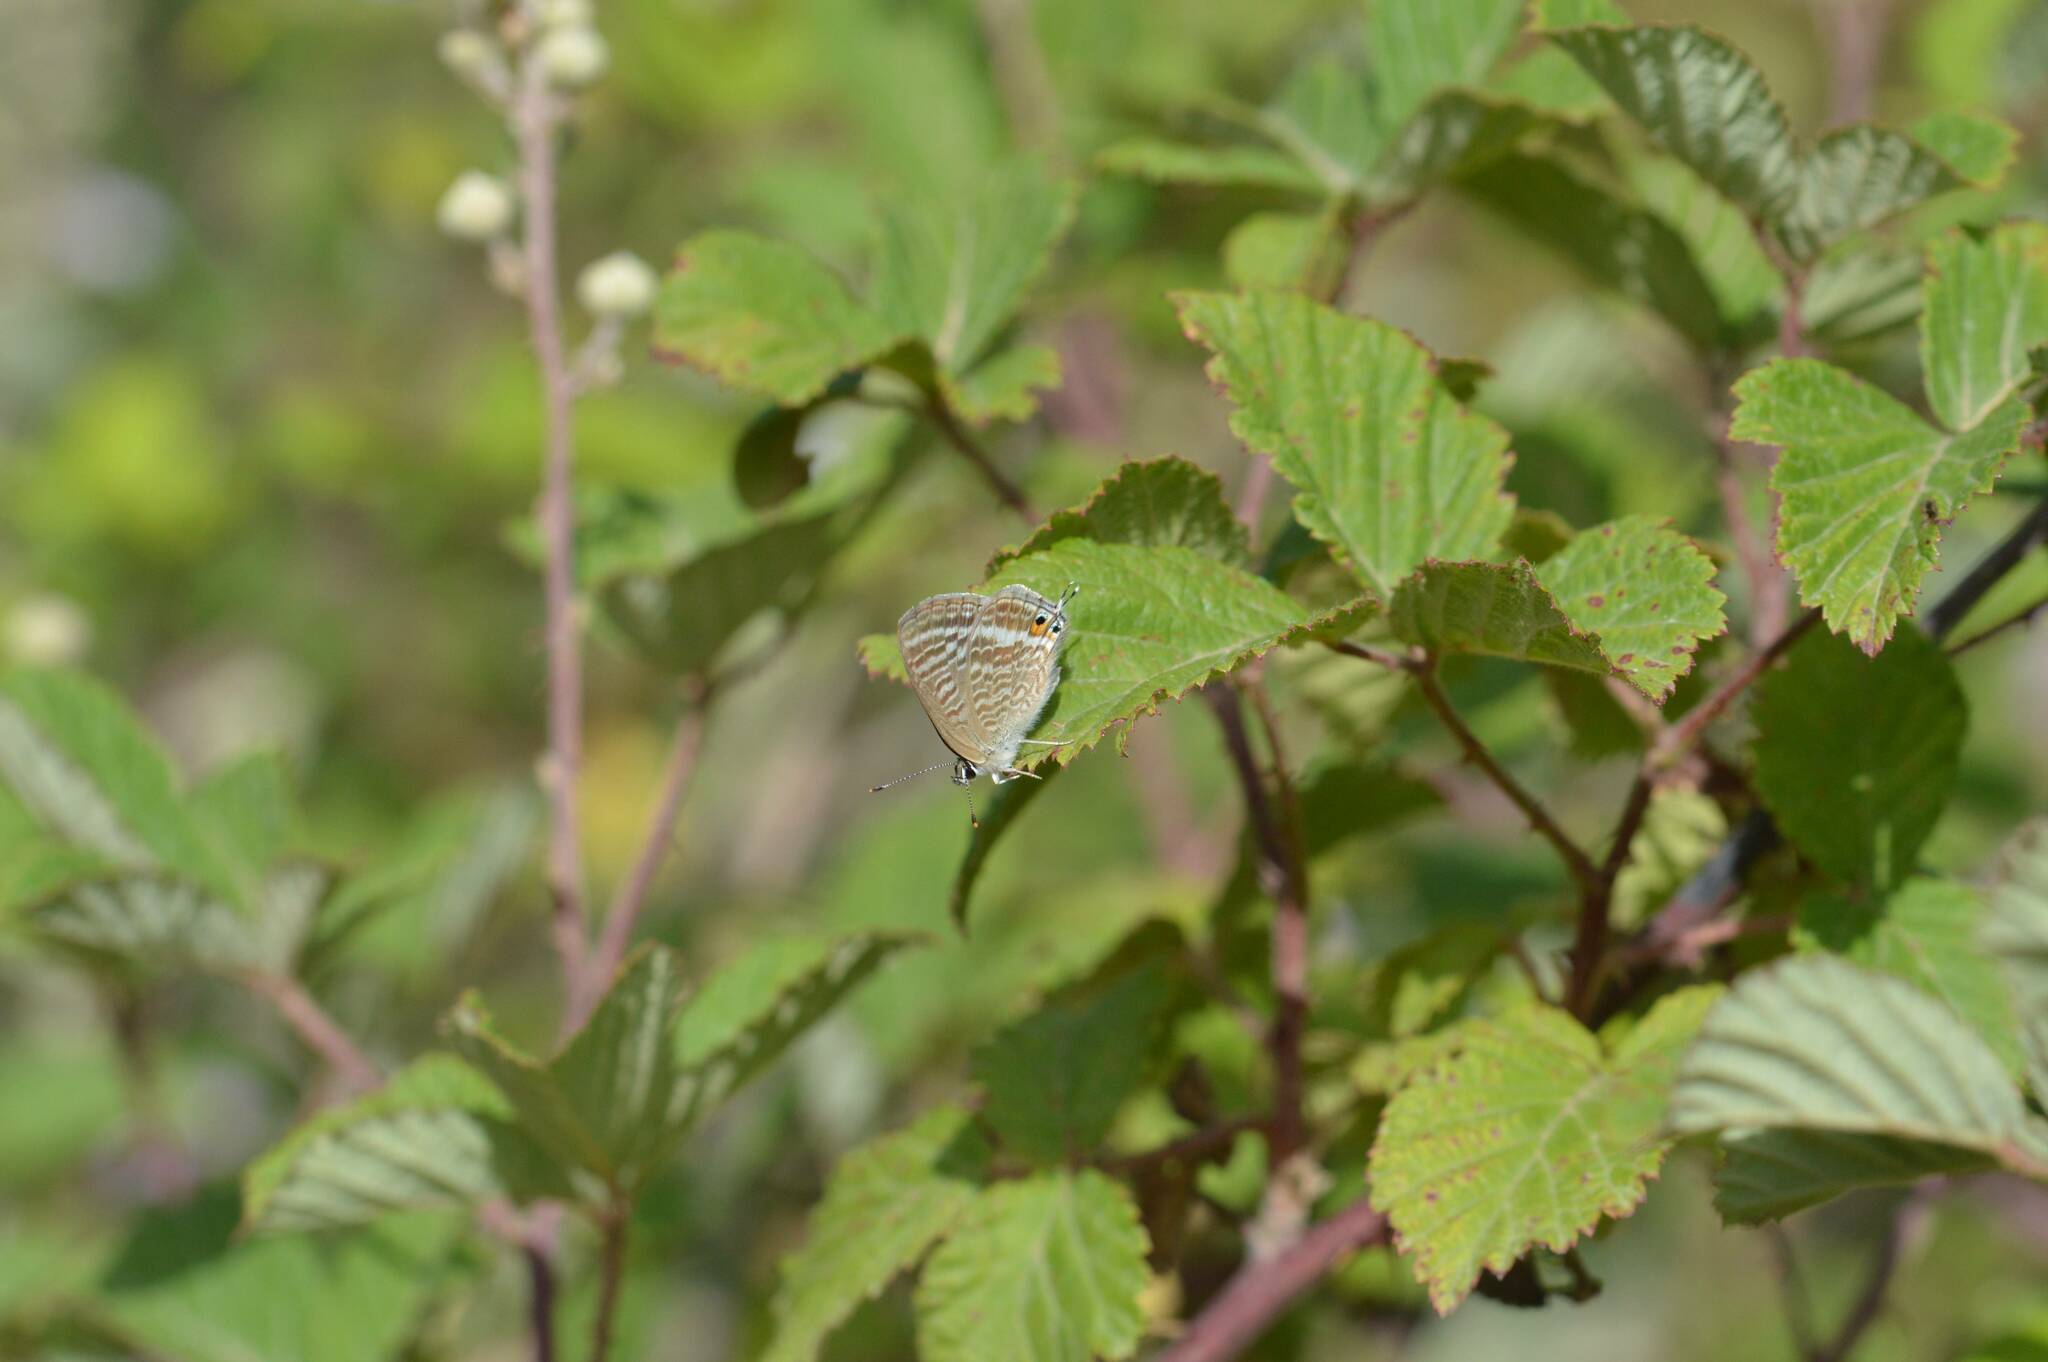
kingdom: Animalia
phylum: Arthropoda
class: Insecta
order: Lepidoptera
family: Lycaenidae
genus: Lampides
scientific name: Lampides boeticus
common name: Long-tailed blue
